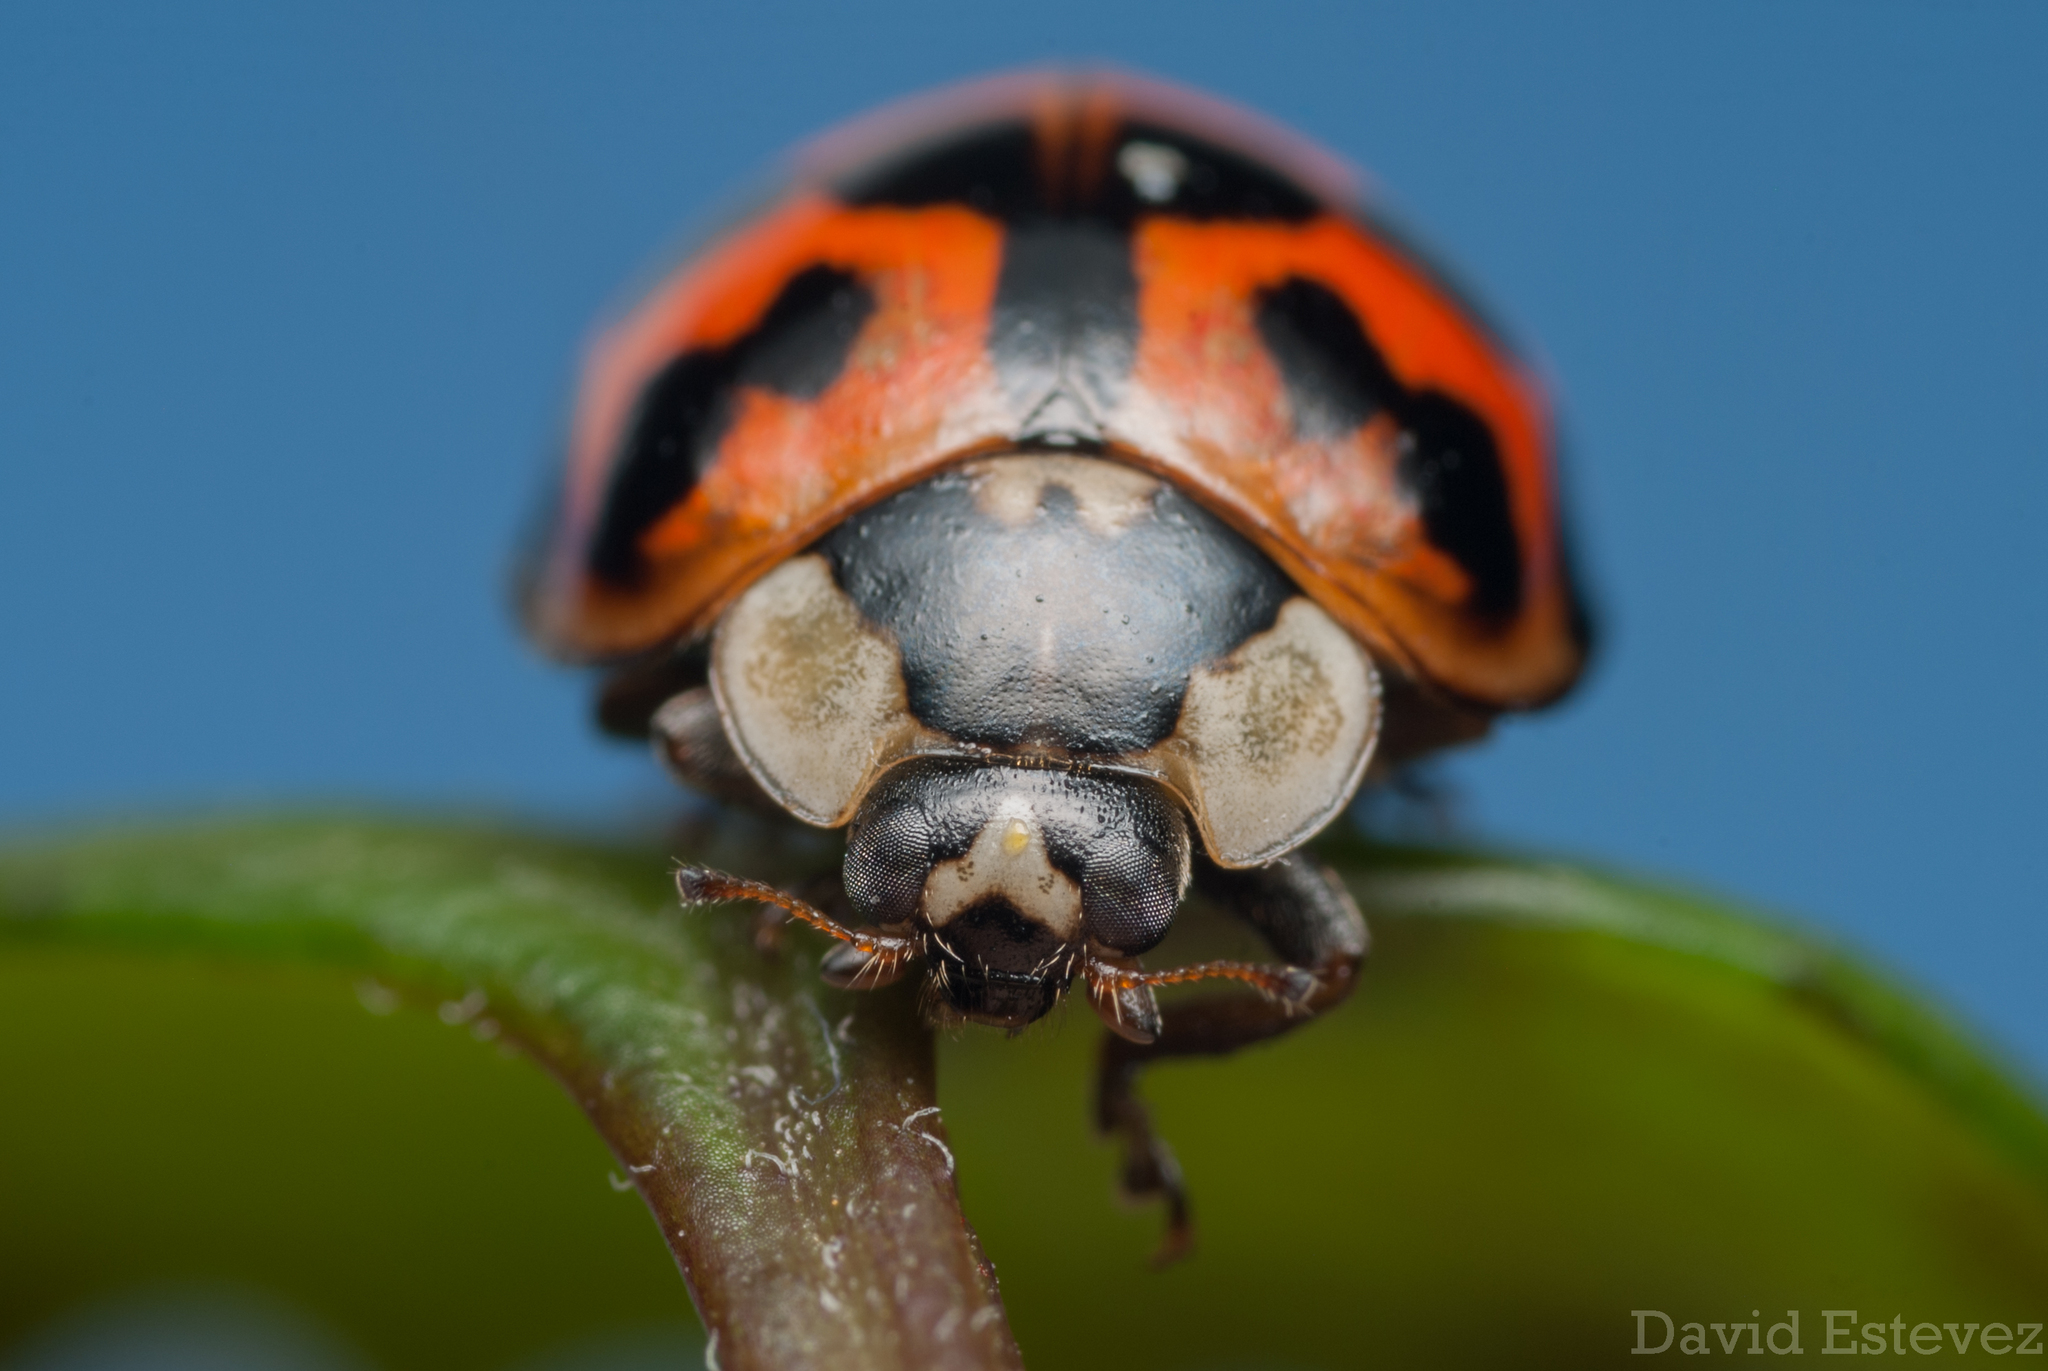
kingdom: Animalia
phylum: Arthropoda
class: Insecta
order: Coleoptera
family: Coccinellidae
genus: Harmonia
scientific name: Harmonia axyridis
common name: Harlequin ladybird
